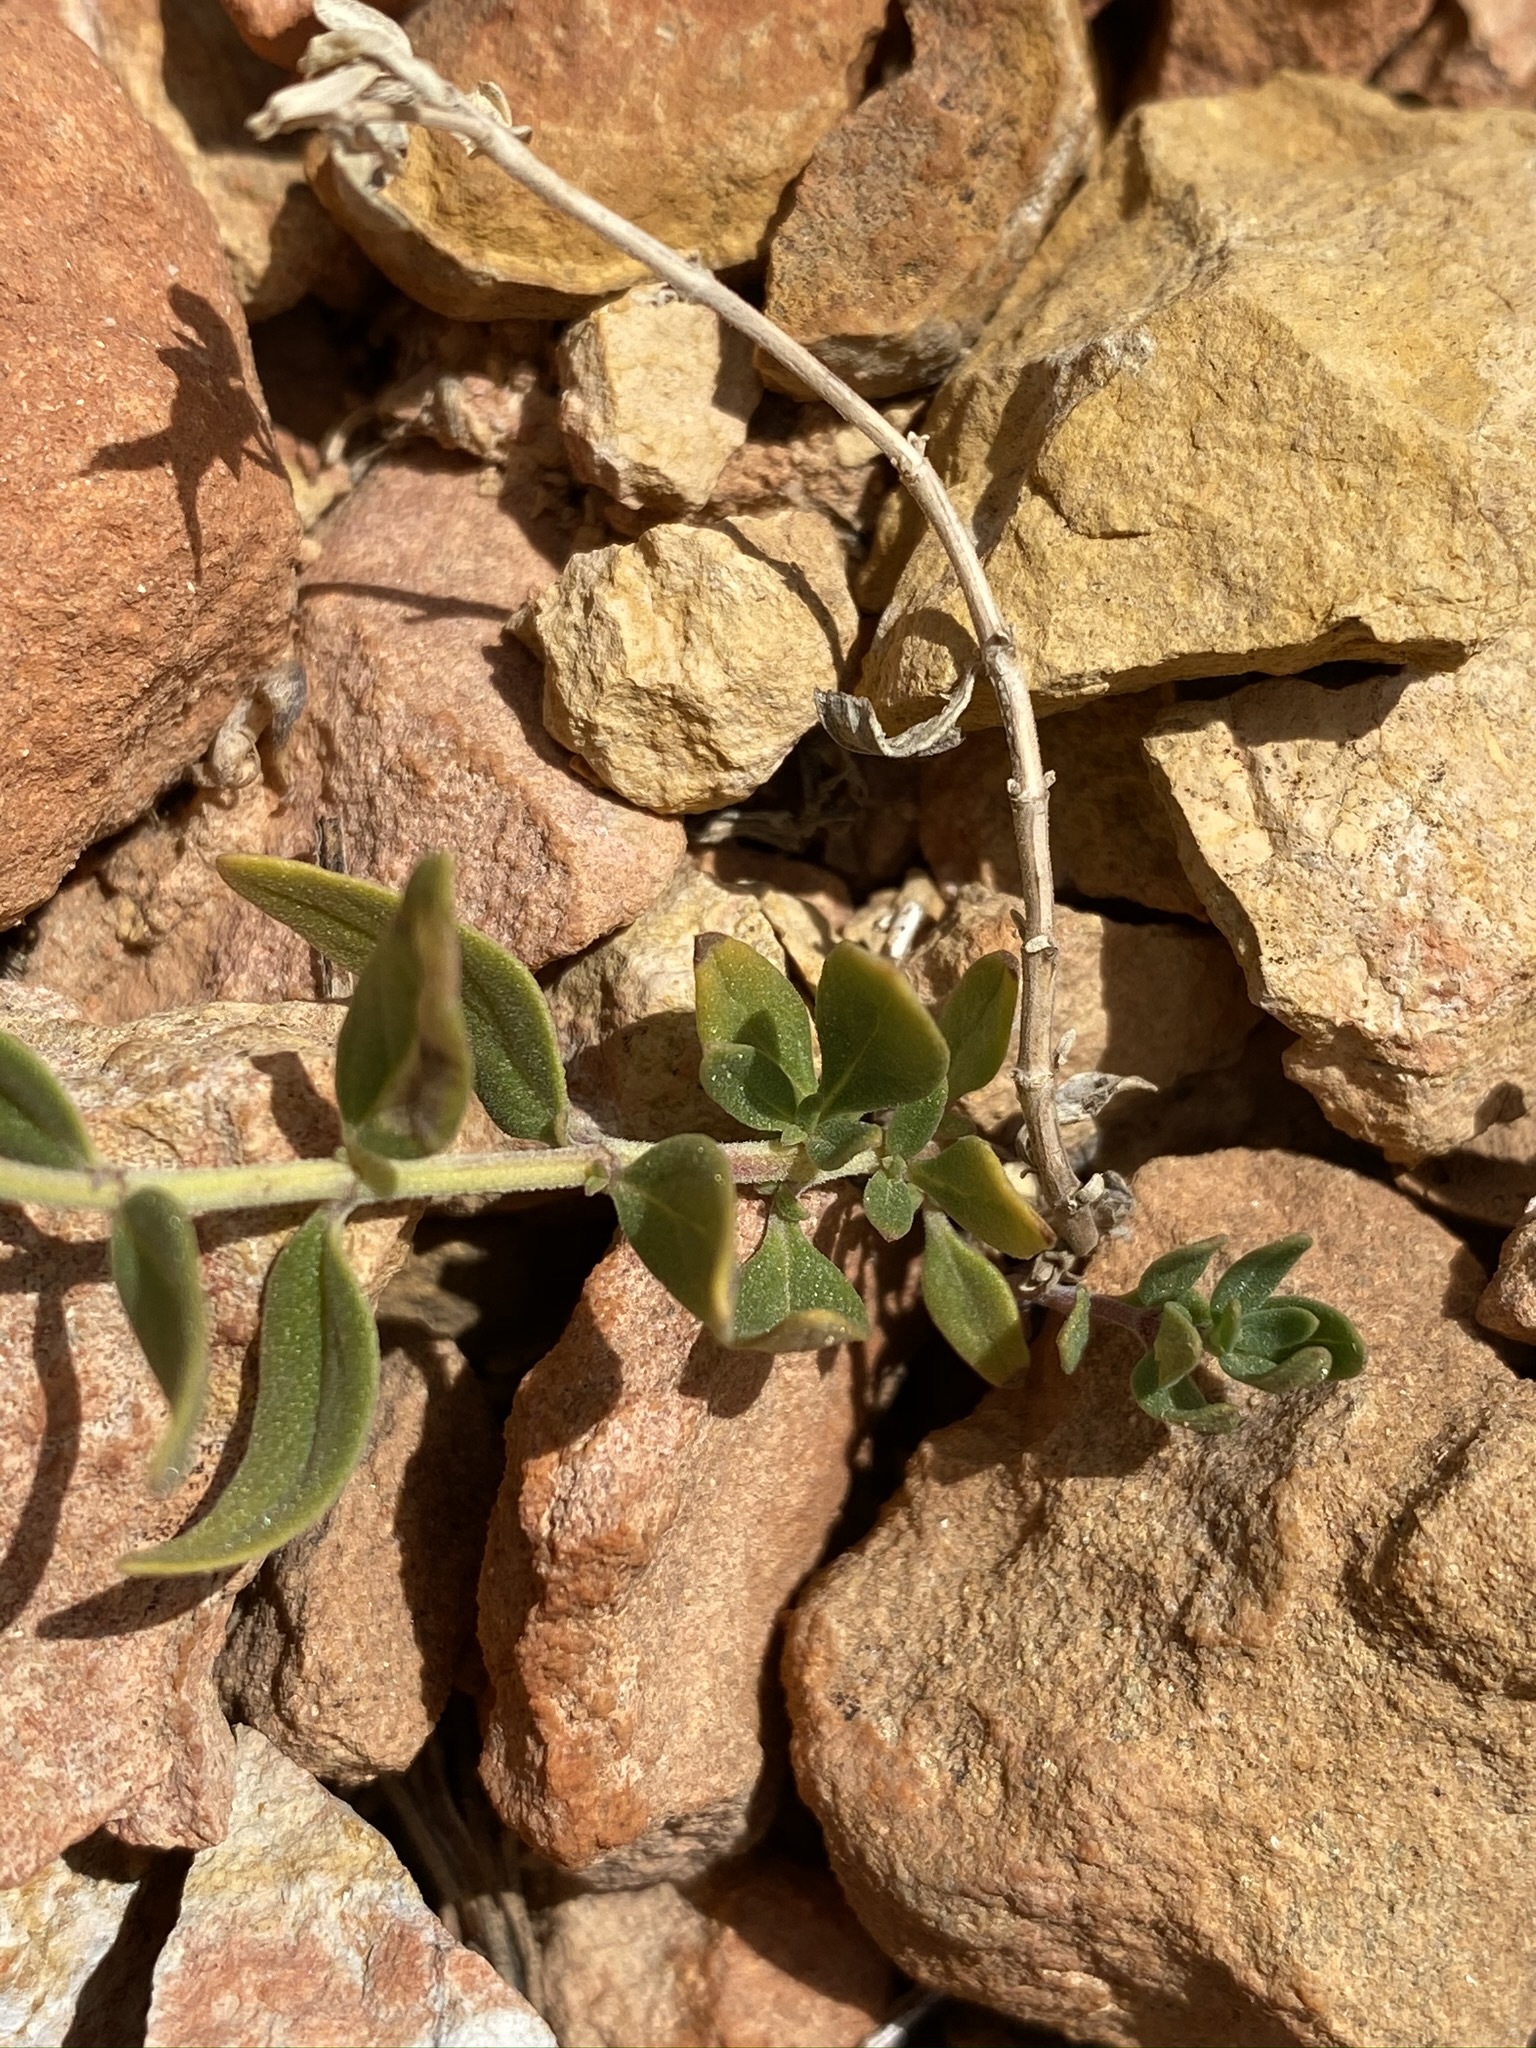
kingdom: Plantae
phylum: Tracheophyta
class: Magnoliopsida
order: Lamiales
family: Lamiaceae
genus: Monardella
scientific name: Monardella odoratissima
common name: Pacific monardella
